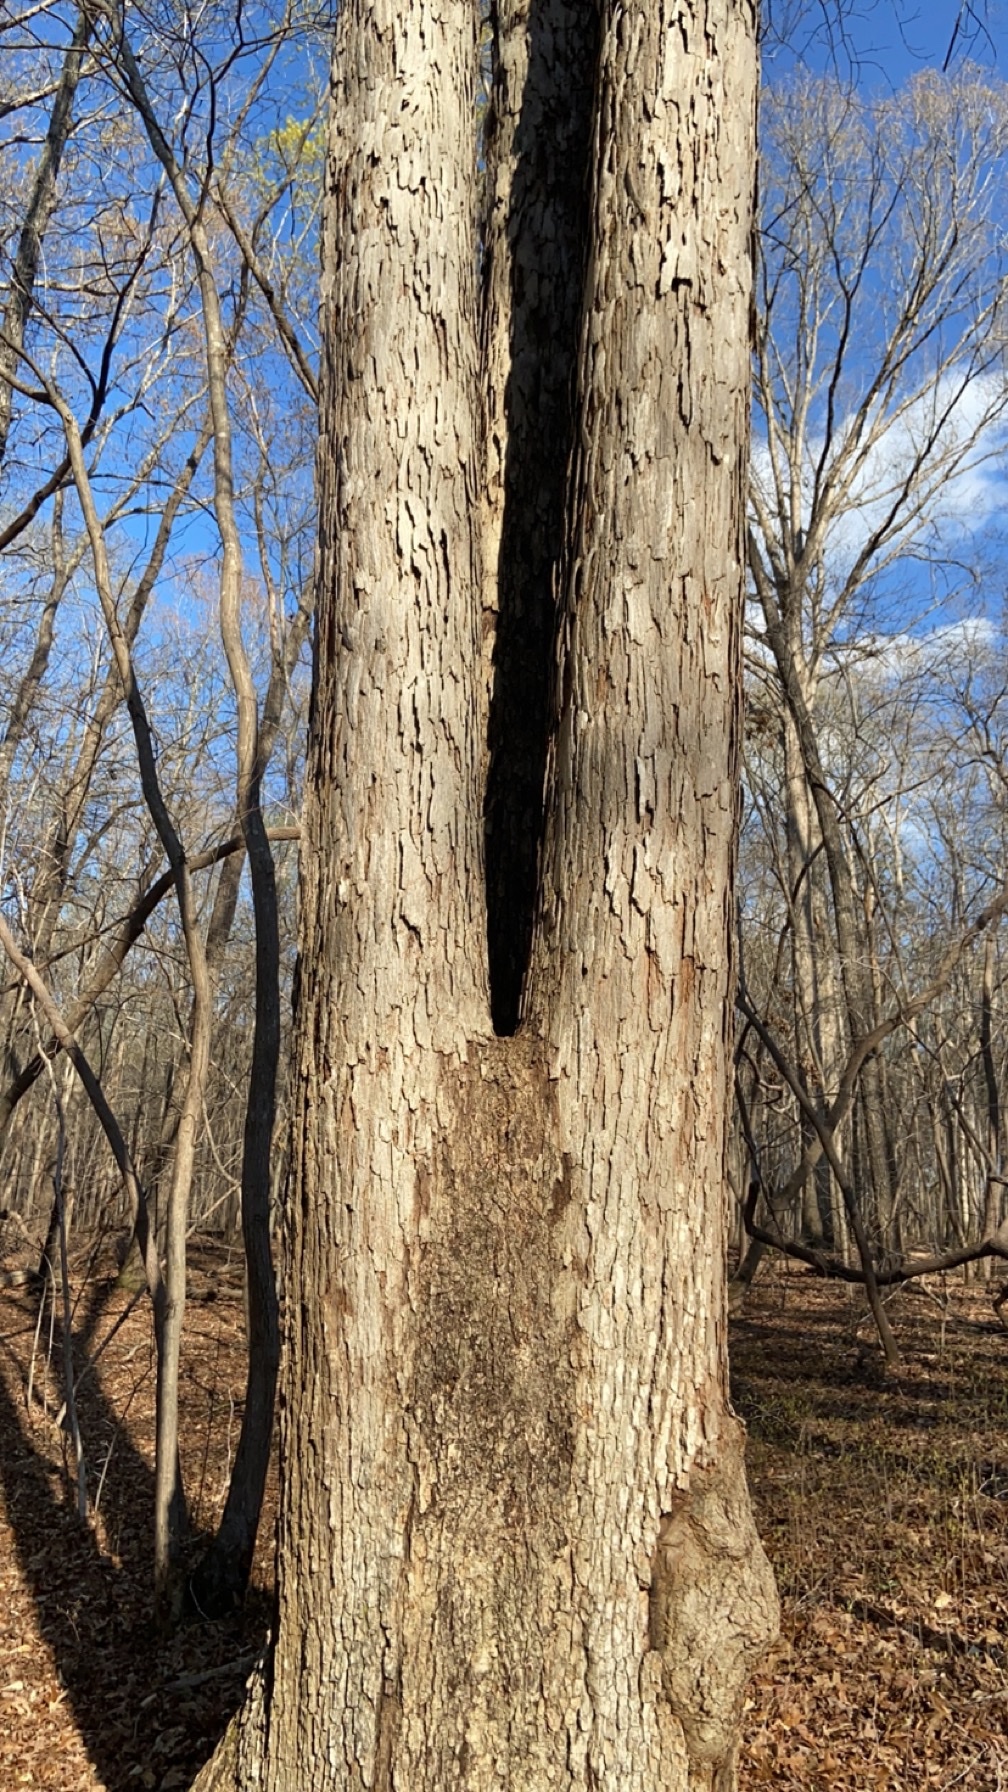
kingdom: Plantae
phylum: Tracheophyta
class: Magnoliopsida
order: Fagales
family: Fagaceae
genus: Quercus
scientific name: Quercus alba
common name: White oak
